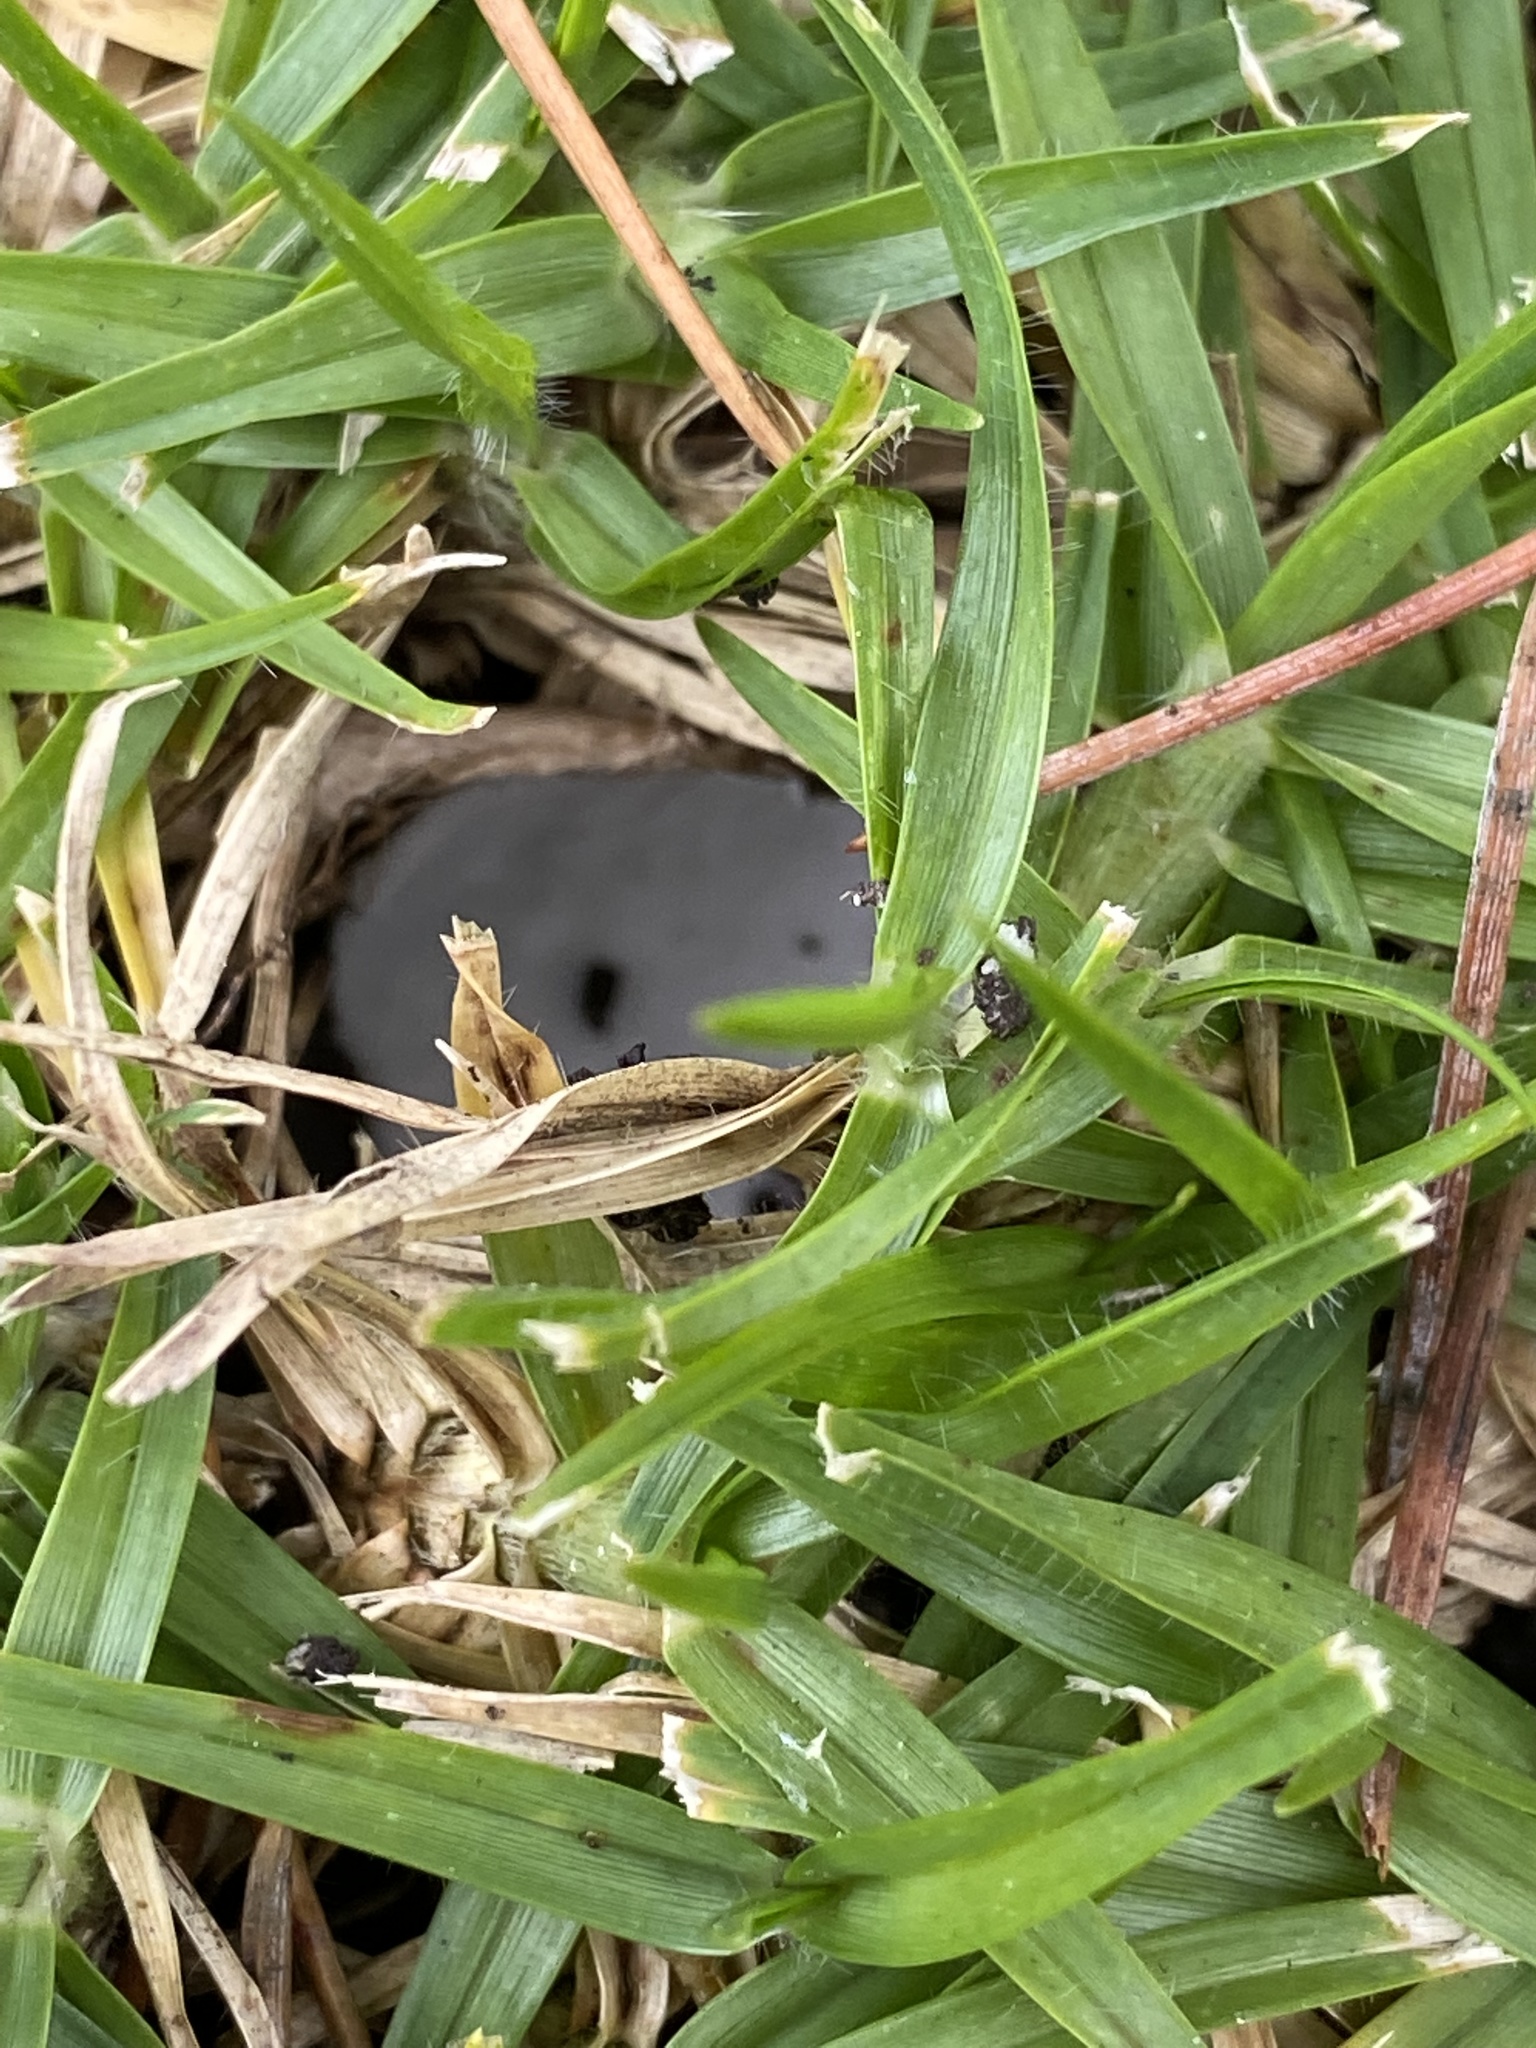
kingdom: Fungi
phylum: Basidiomycota
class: Agaricomycetes
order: Agaricales
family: Amanitaceae
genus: Amanita
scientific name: Amanita phalloides
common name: Death cap
